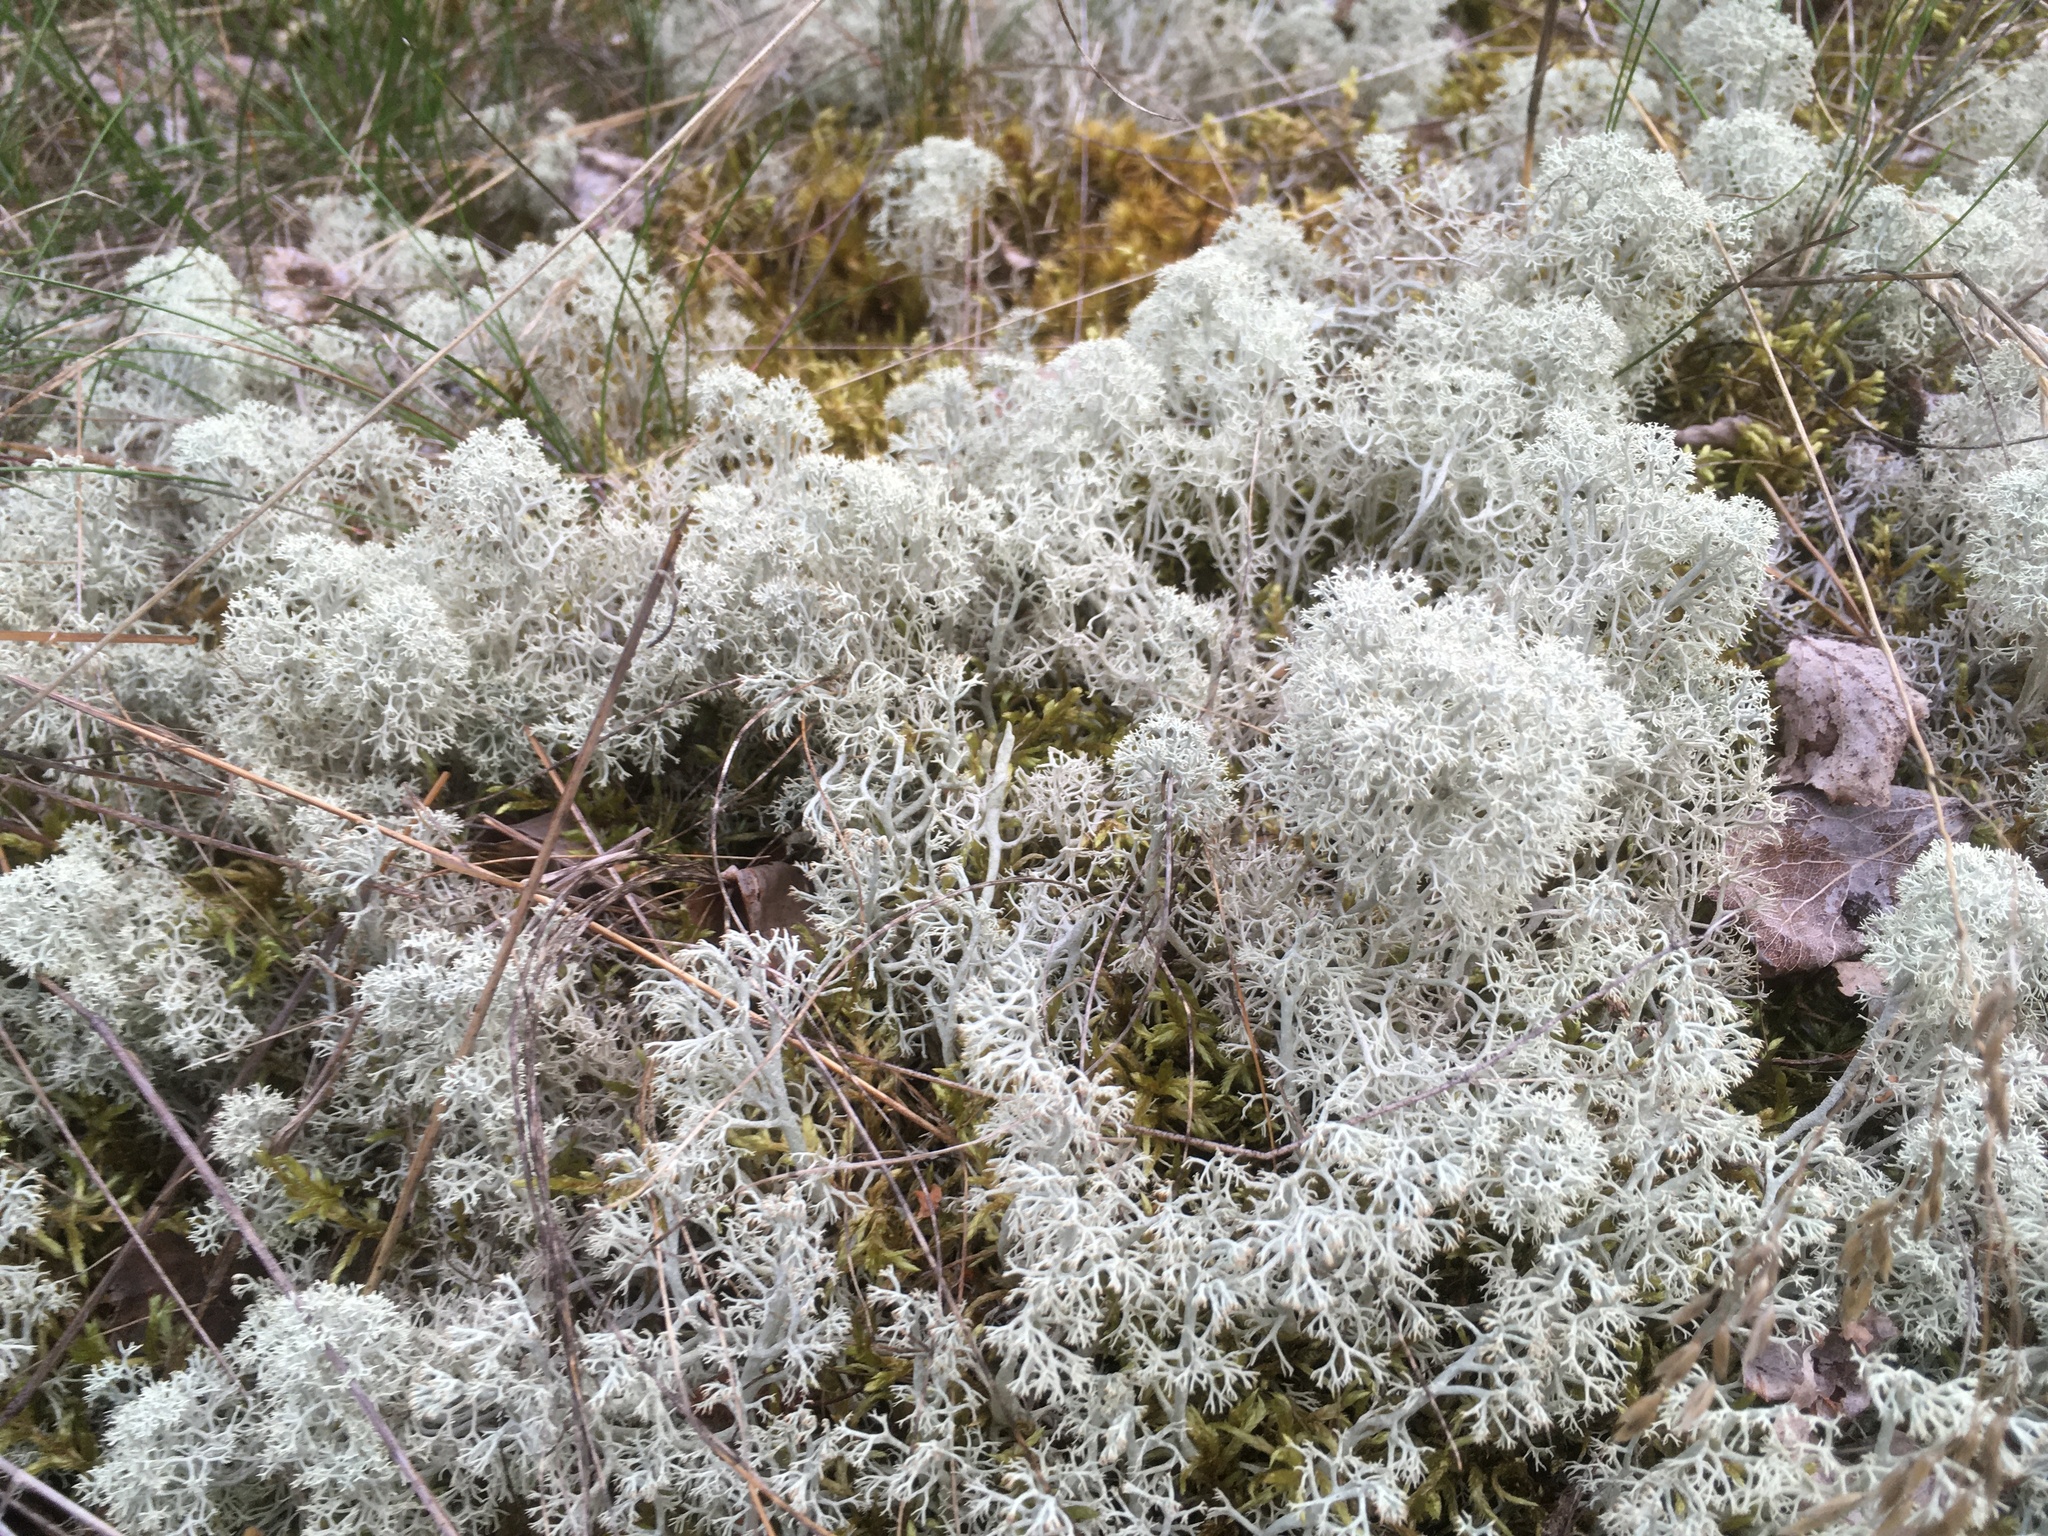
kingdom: Fungi
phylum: Ascomycota
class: Lecanoromycetes
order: Lecanorales
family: Cladoniaceae
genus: Cladonia
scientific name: Cladonia stellaris
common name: Star-tipped reindeer lichen
